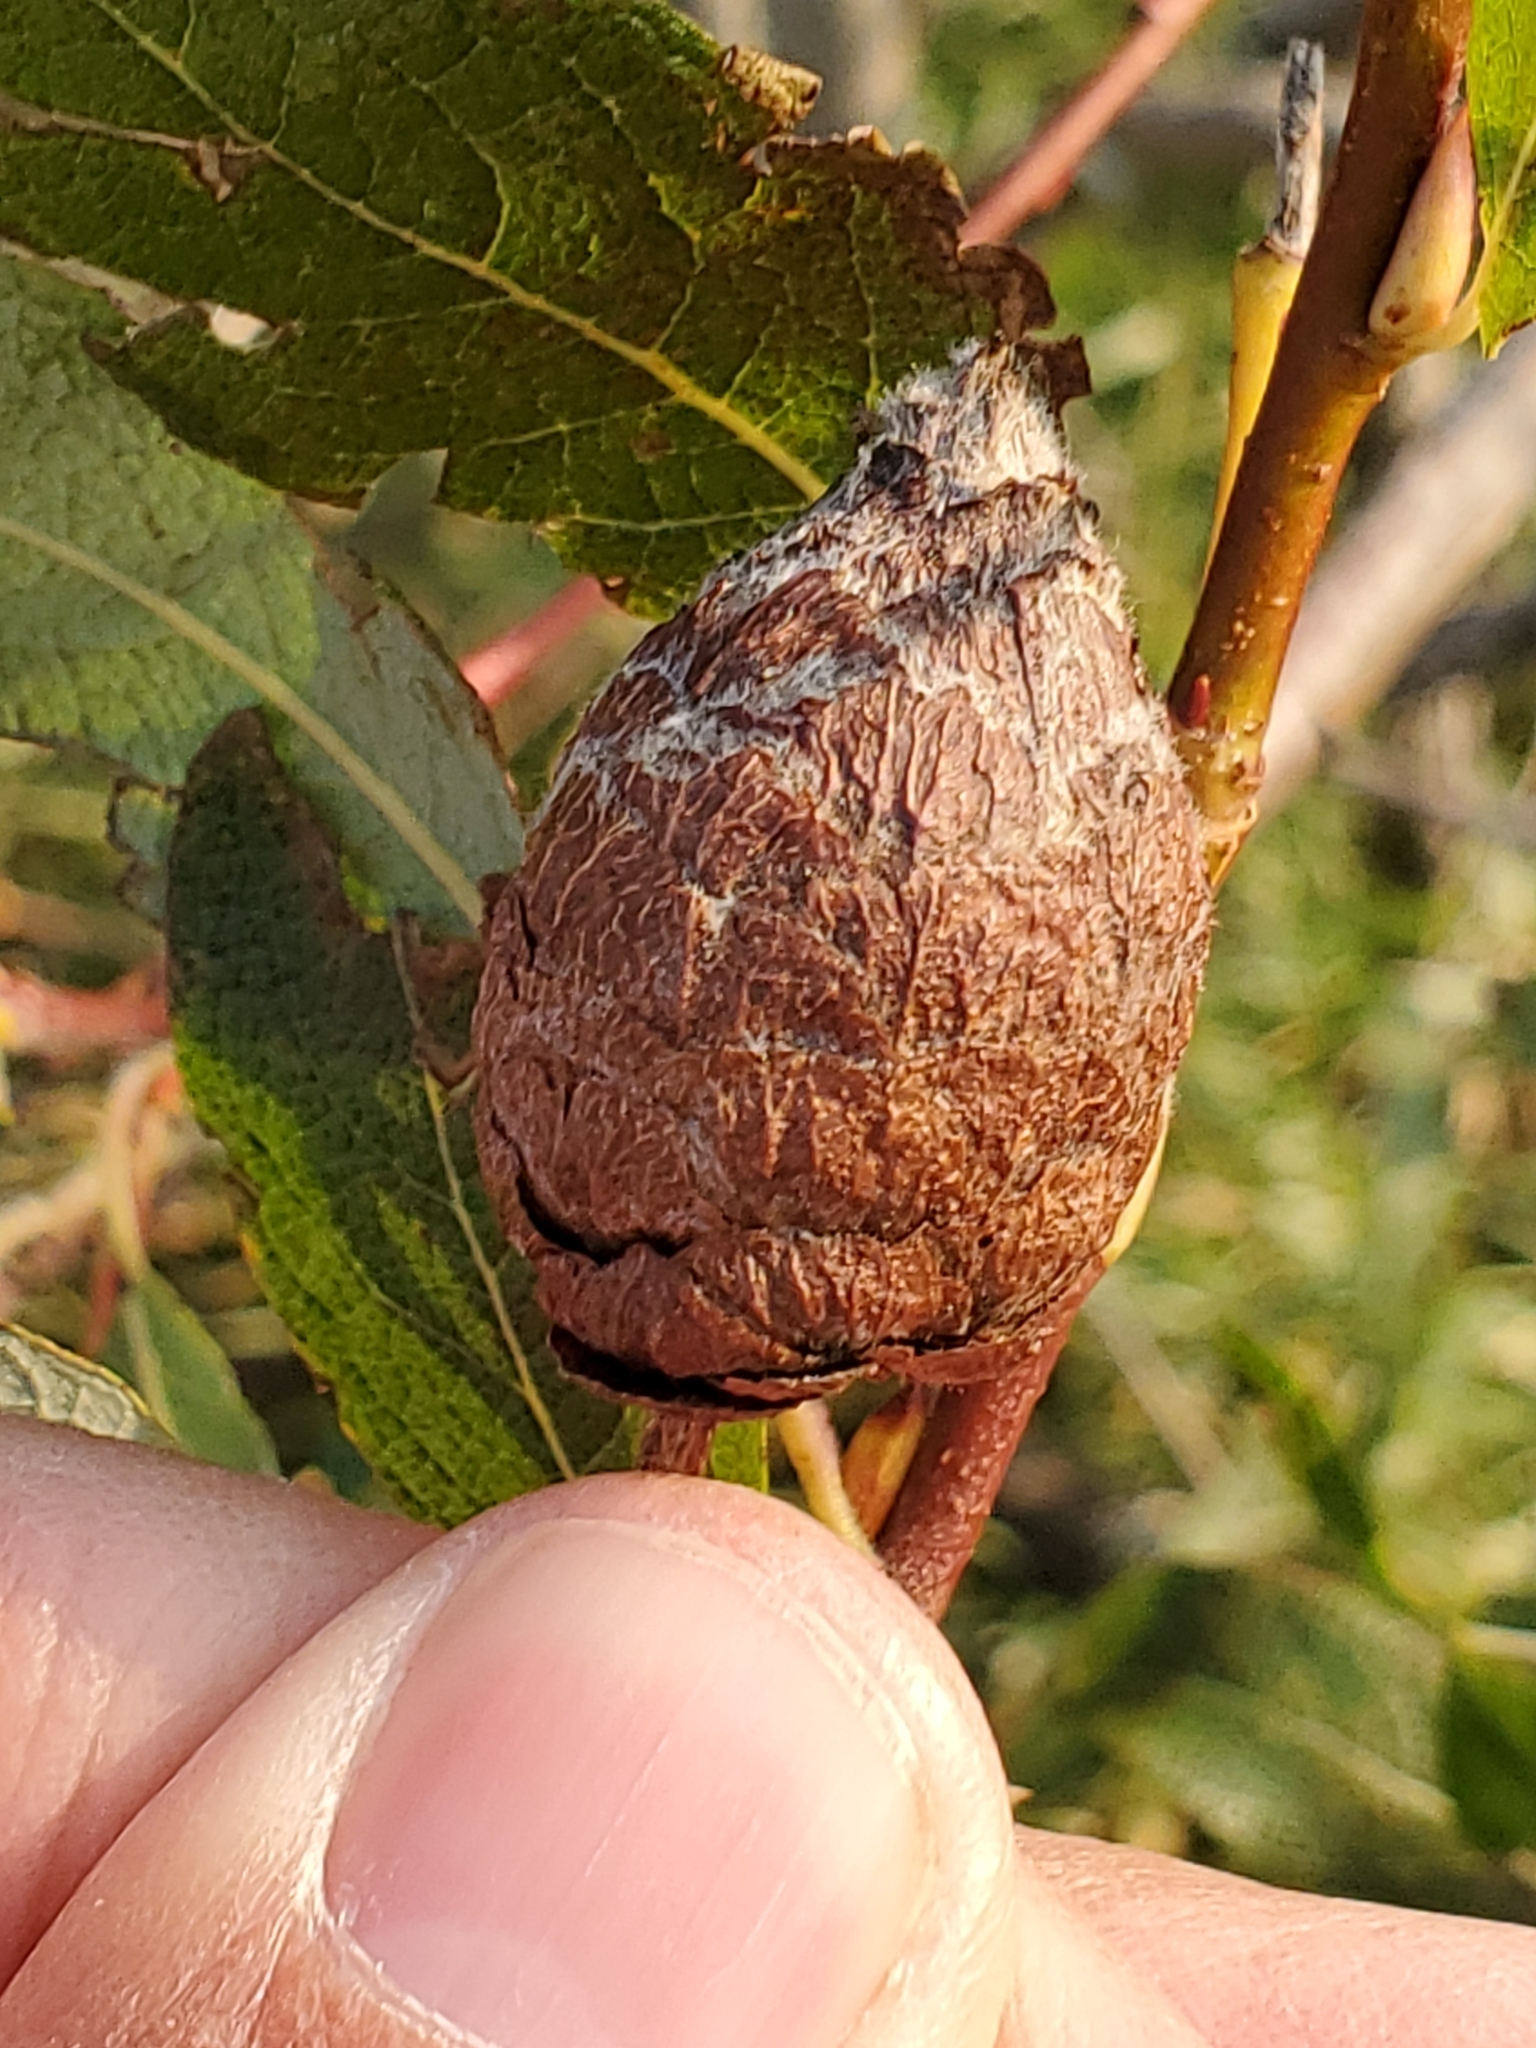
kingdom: Animalia
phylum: Arthropoda
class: Insecta
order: Diptera
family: Cecidomyiidae
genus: Rabdophaga
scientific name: Rabdophaga strobiloides
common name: Willow pinecone gall midge
